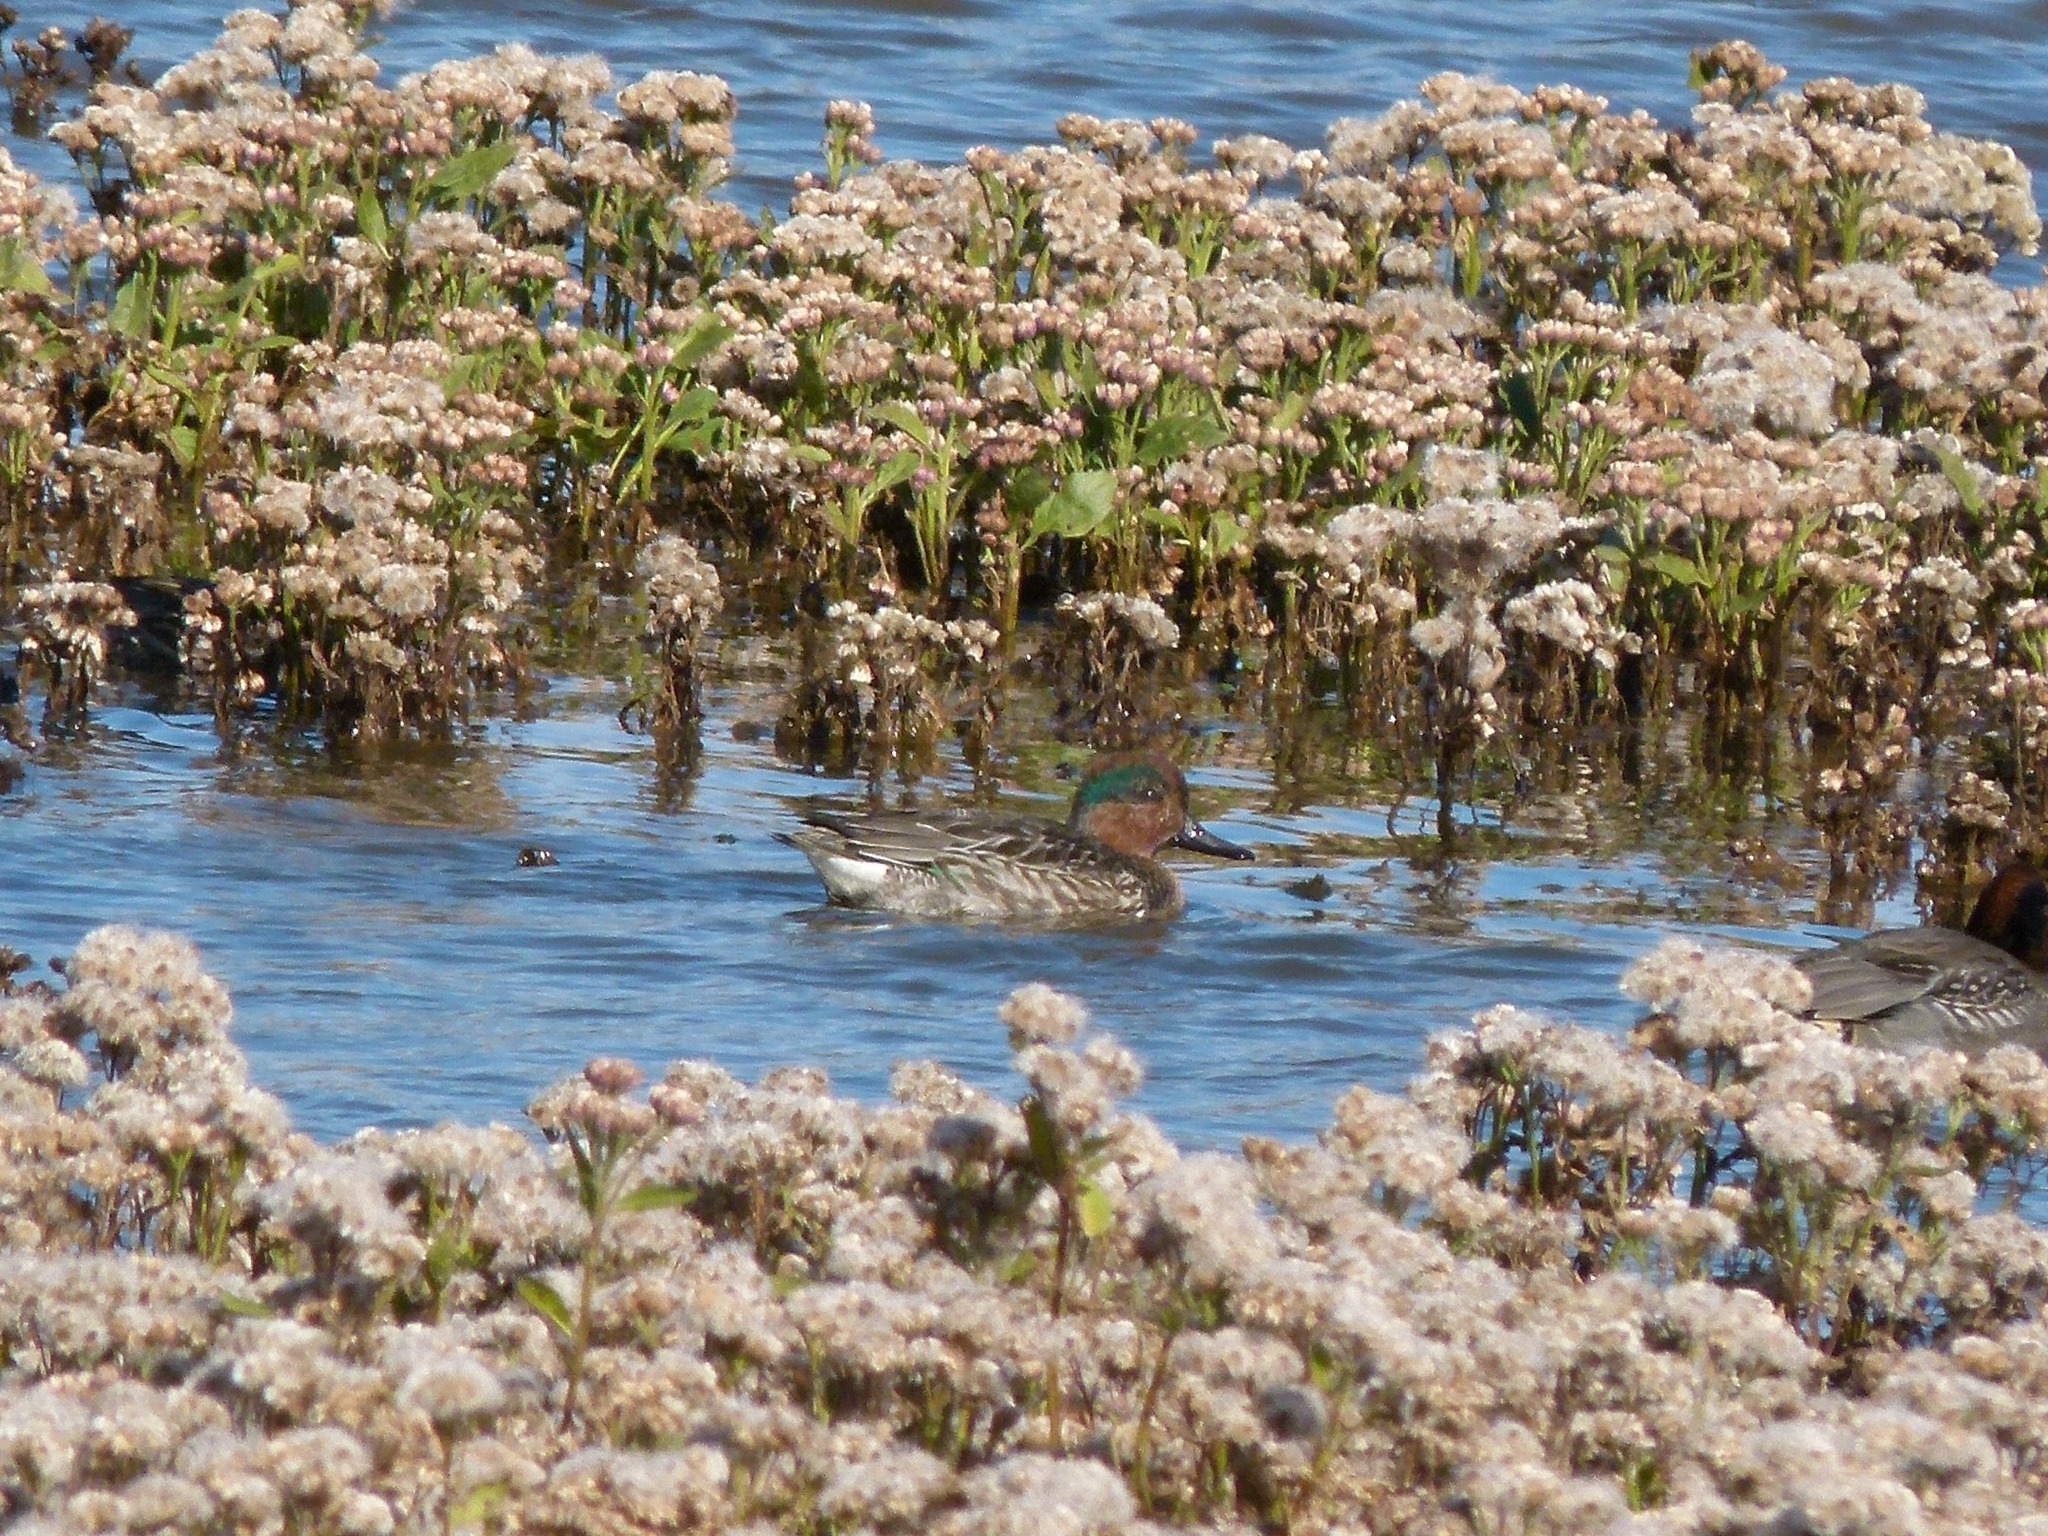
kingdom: Animalia
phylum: Chordata
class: Aves
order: Anseriformes
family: Anatidae
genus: Anas
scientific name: Anas crecca
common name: Eurasian teal
